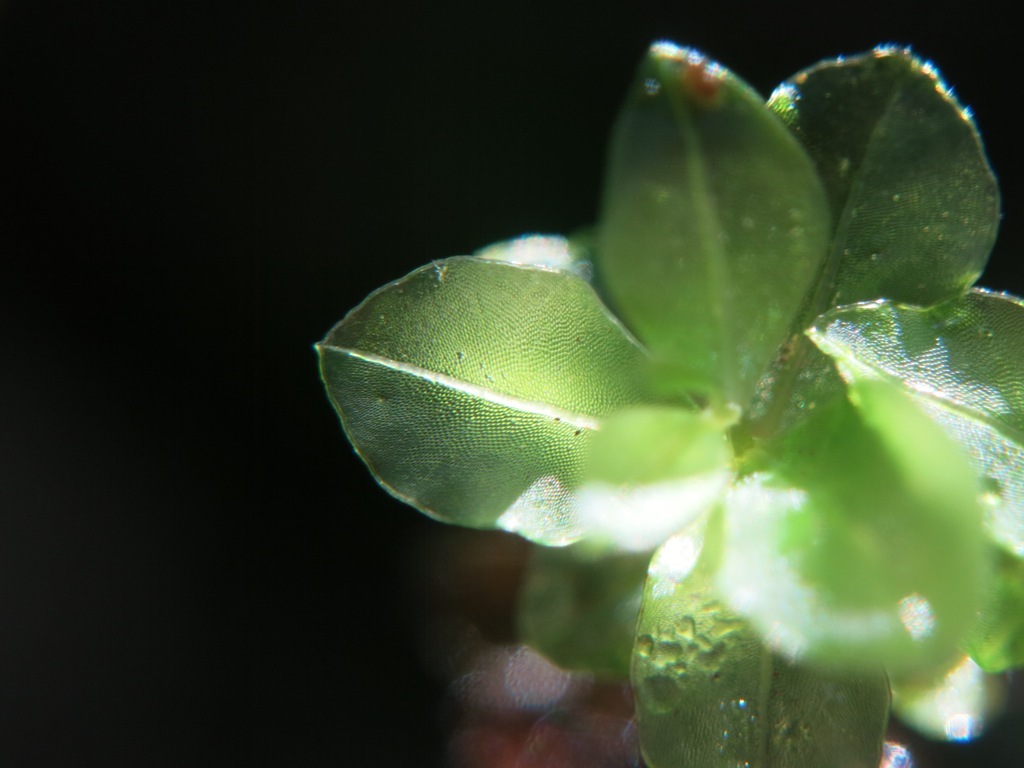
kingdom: Plantae
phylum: Bryophyta
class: Bryopsida
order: Bryales
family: Mniaceae
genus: Rhizomnium
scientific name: Rhizomnium punctatum
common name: Dotted leafy moss
